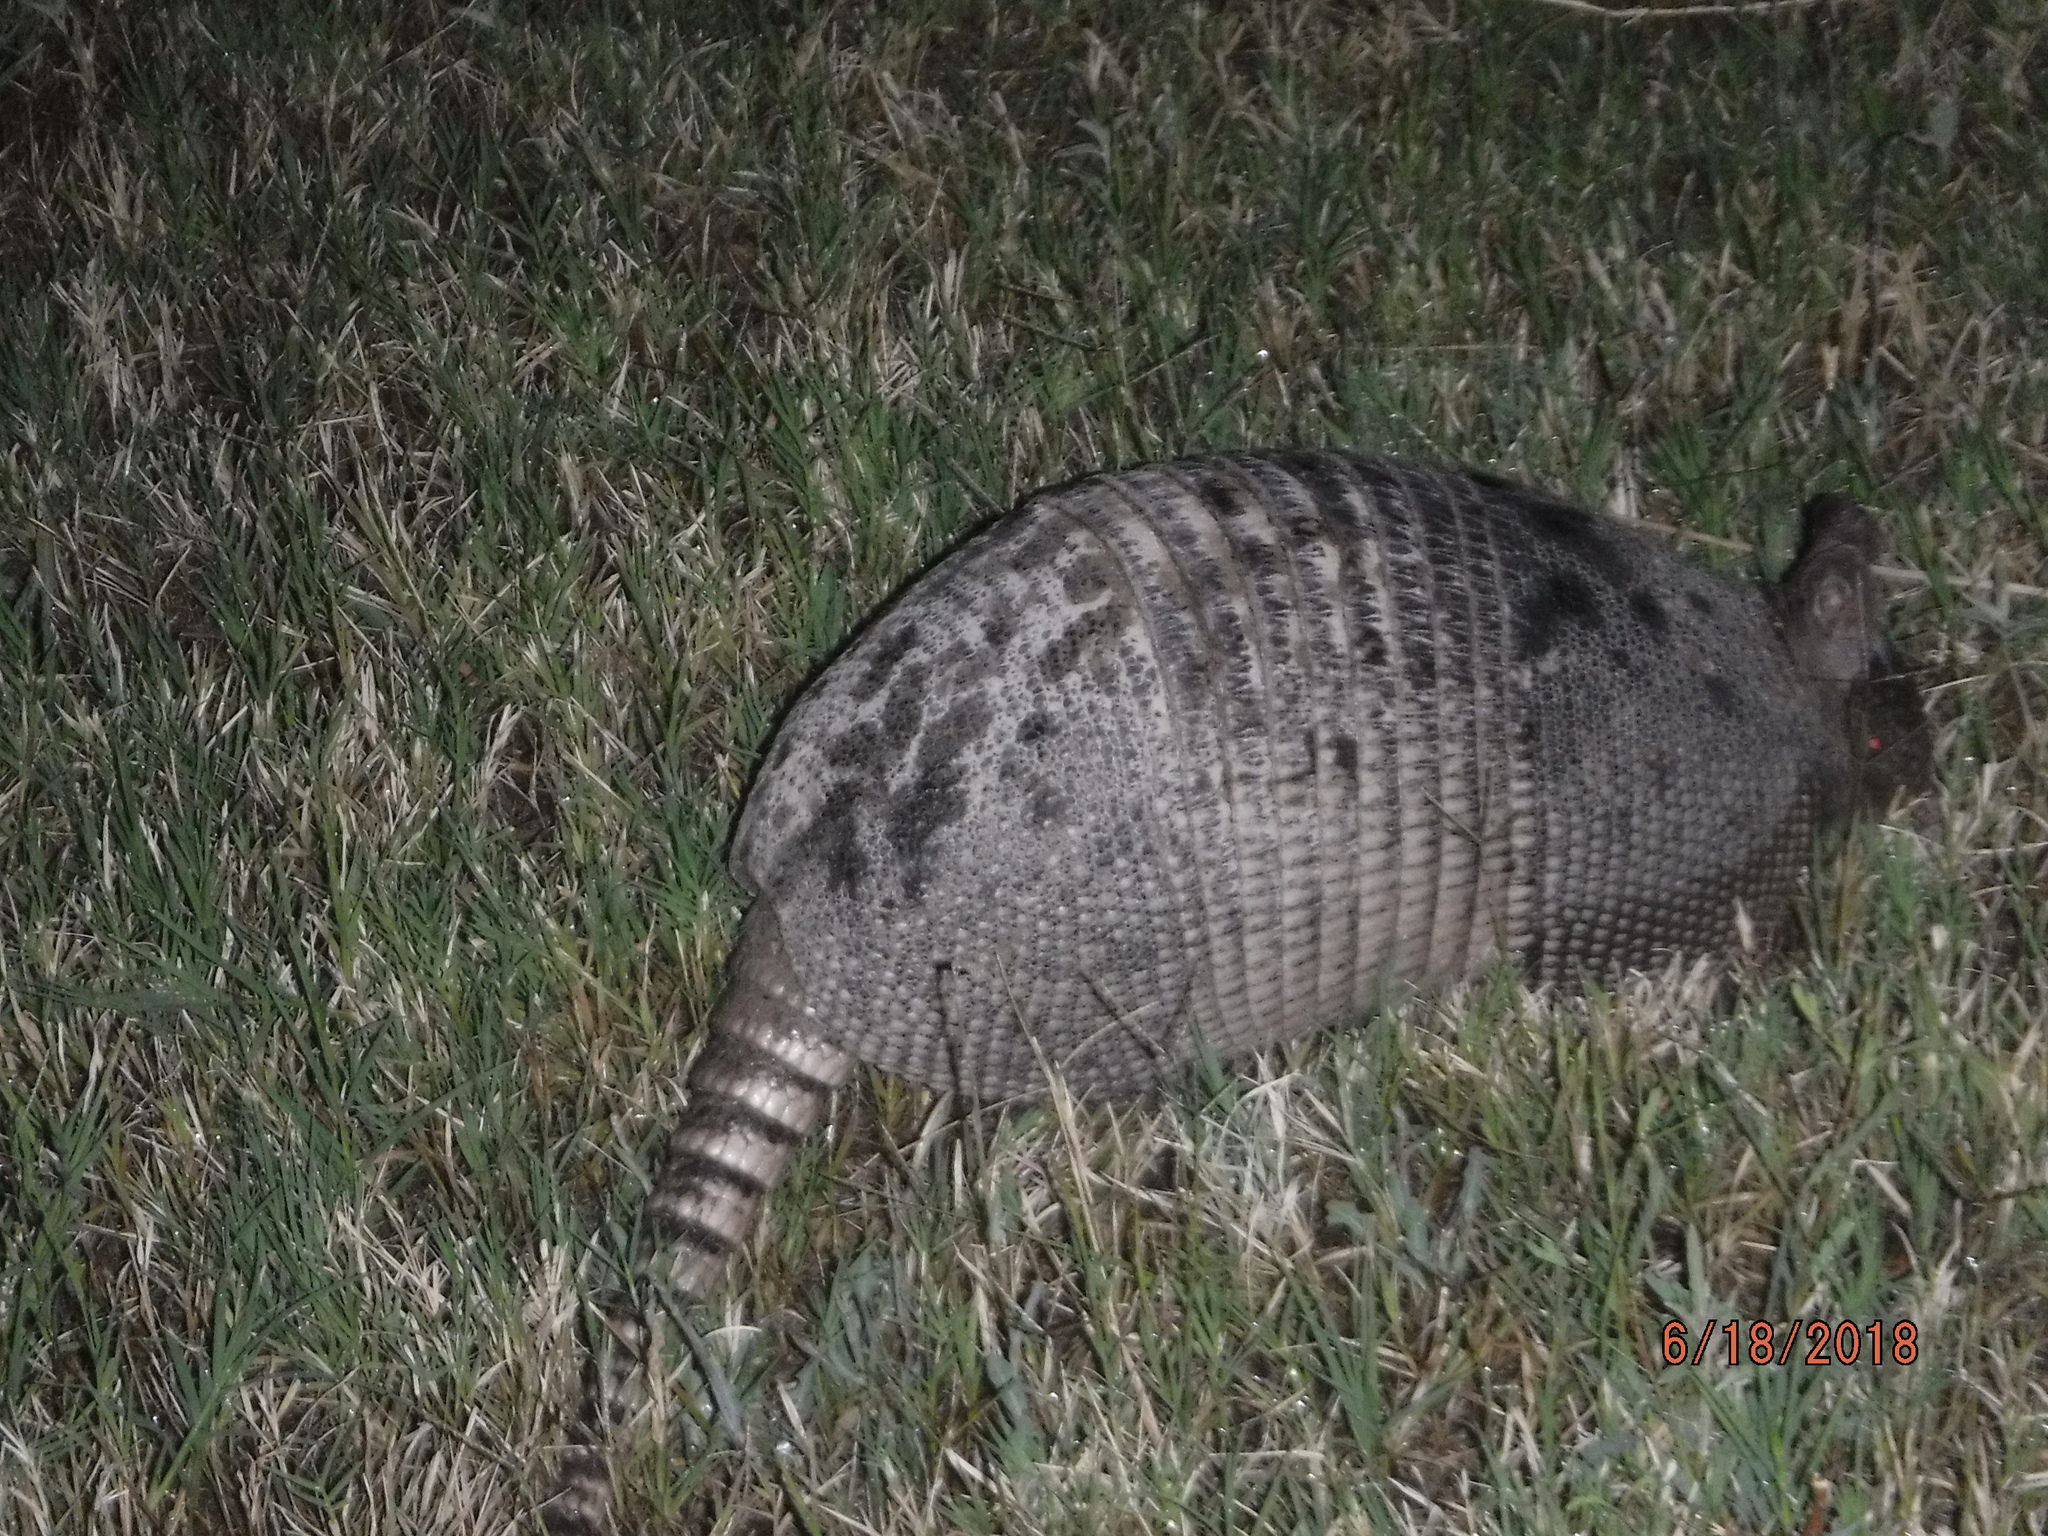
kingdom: Animalia
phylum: Chordata
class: Mammalia
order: Cingulata
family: Dasypodidae
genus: Dasypus
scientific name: Dasypus novemcinctus
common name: Nine-banded armadillo
